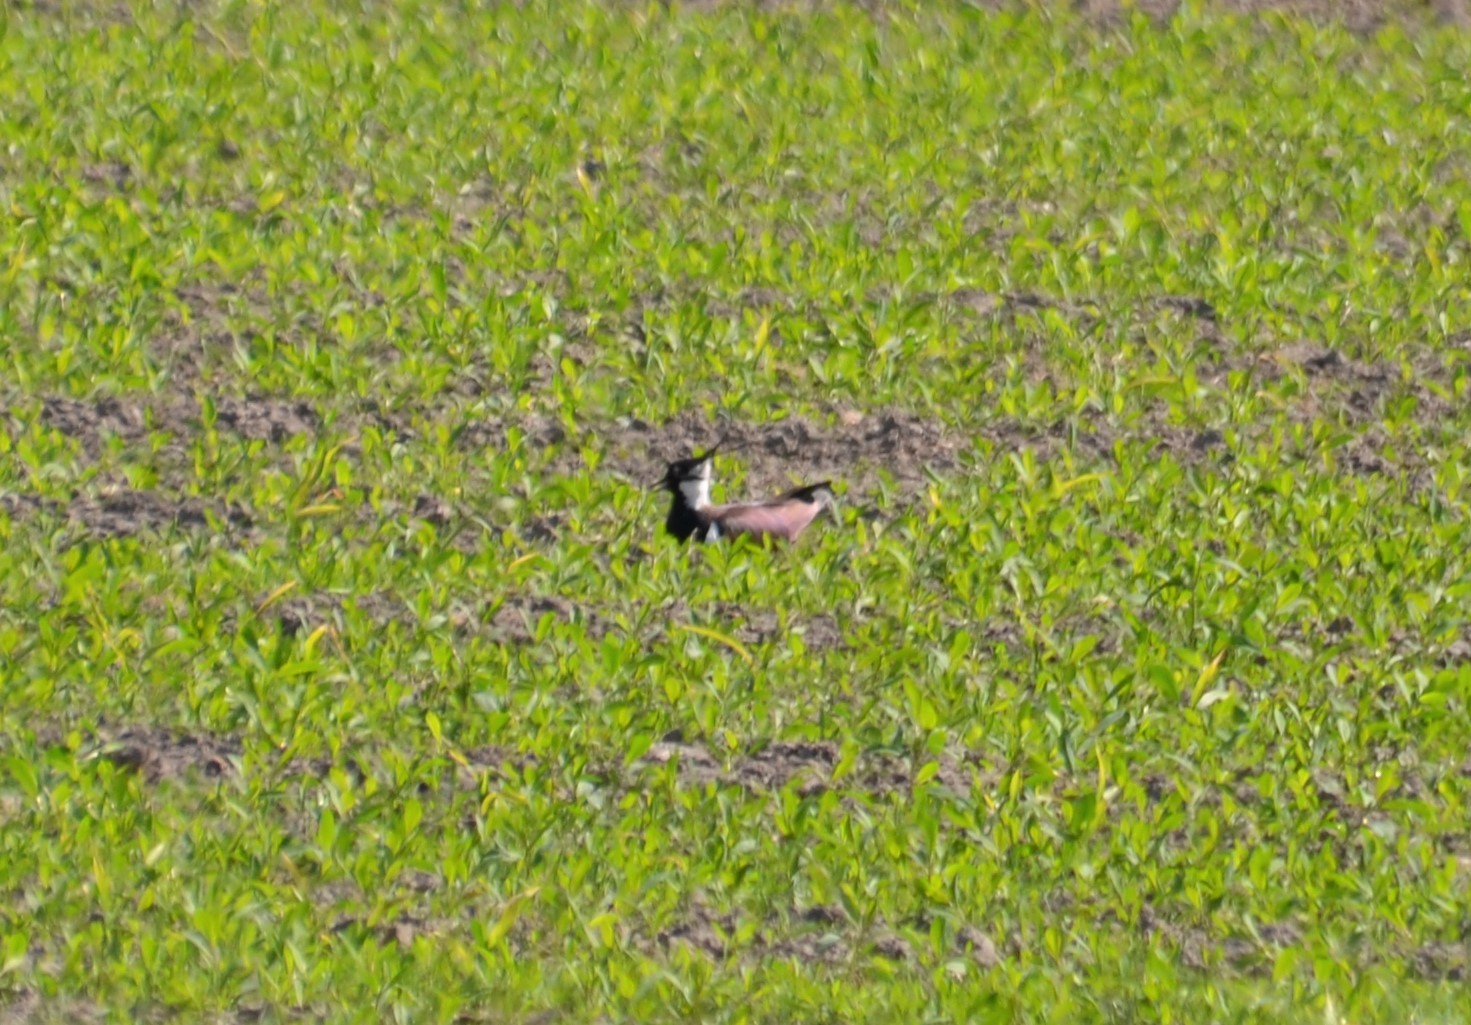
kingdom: Animalia
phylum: Chordata
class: Aves
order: Charadriiformes
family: Charadriidae
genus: Vanellus
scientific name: Vanellus vanellus
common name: Northern lapwing
